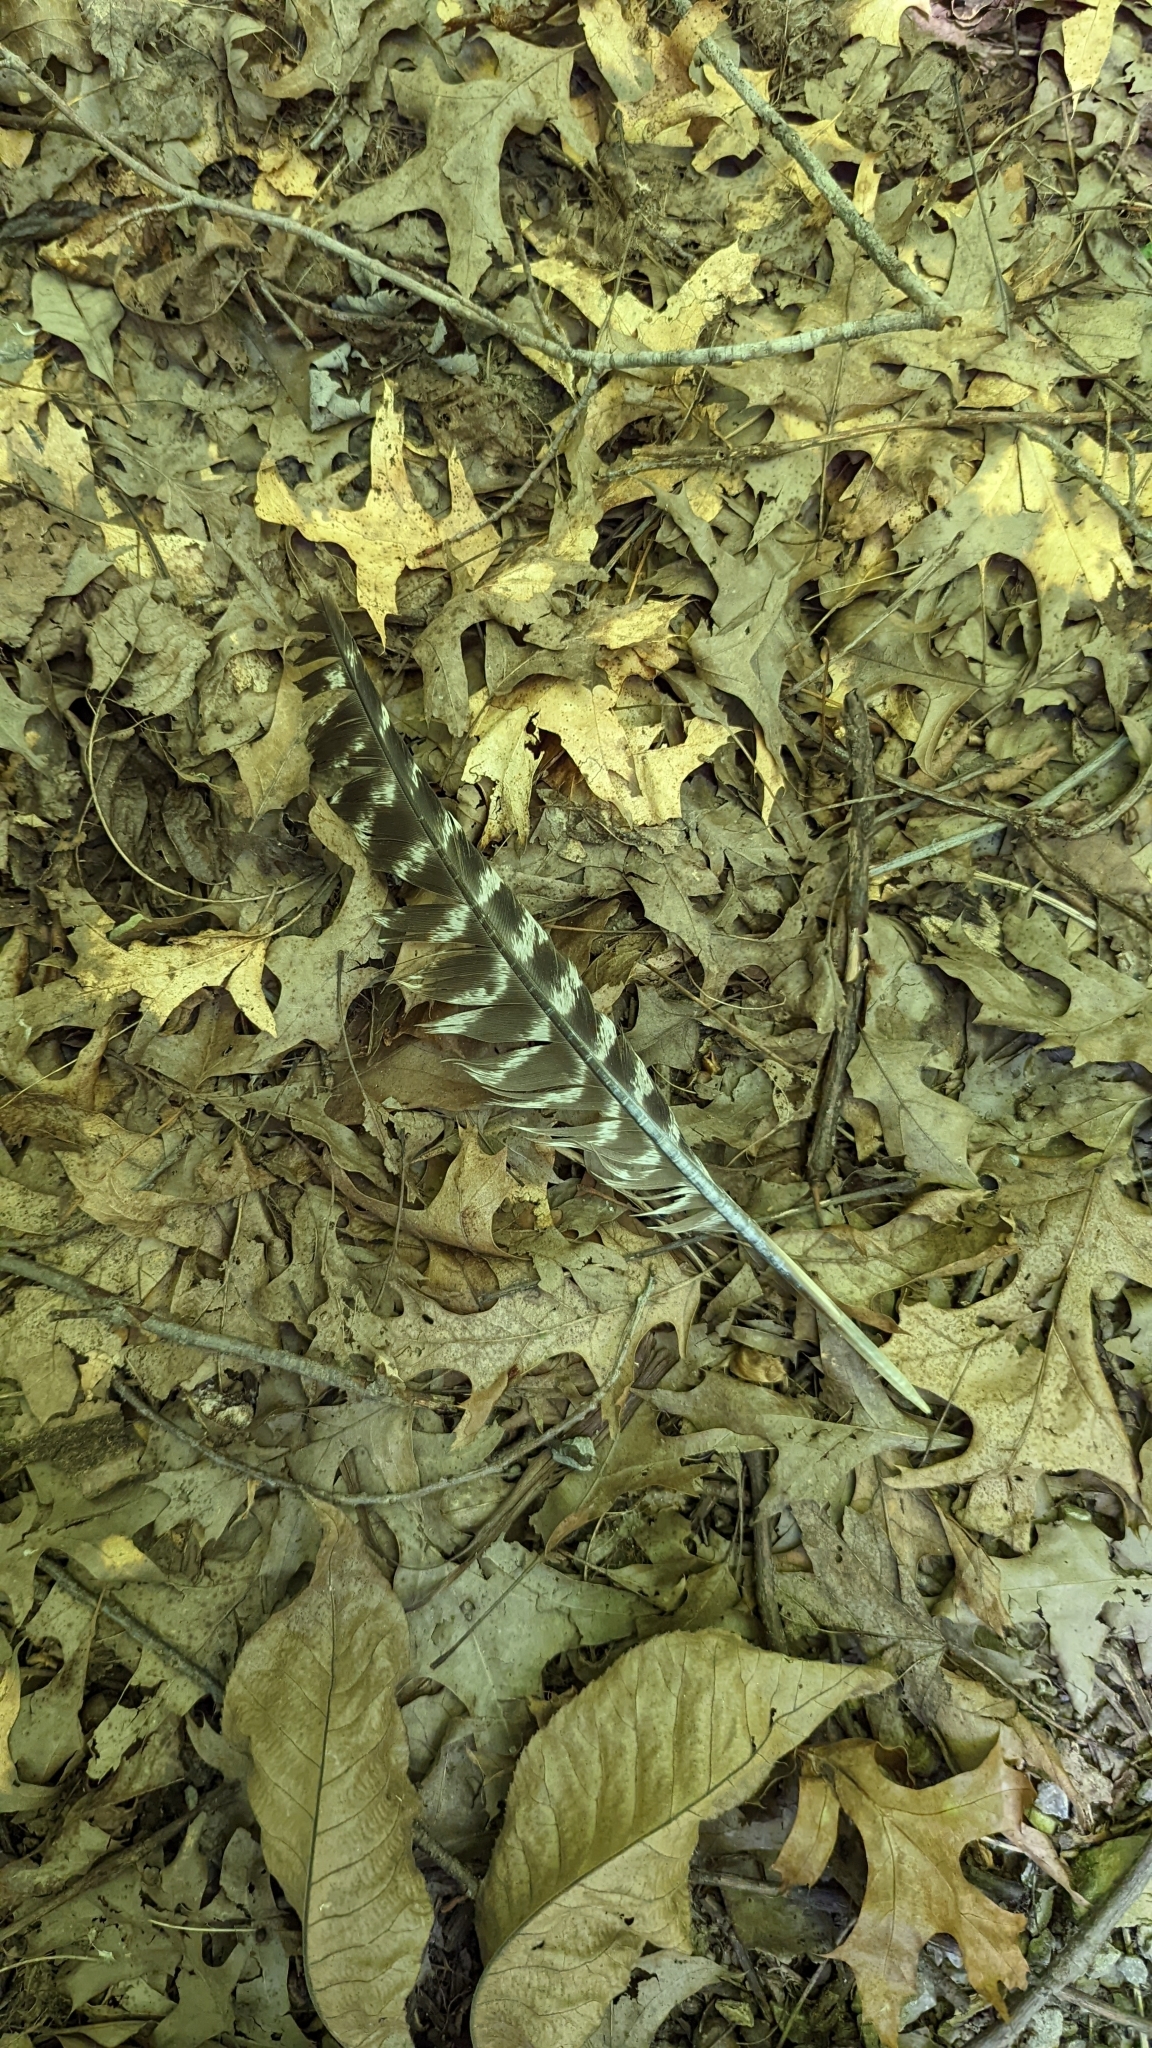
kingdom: Animalia
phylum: Chordata
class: Aves
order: Galliformes
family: Phasianidae
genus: Meleagris
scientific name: Meleagris gallopavo
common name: Wild turkey
